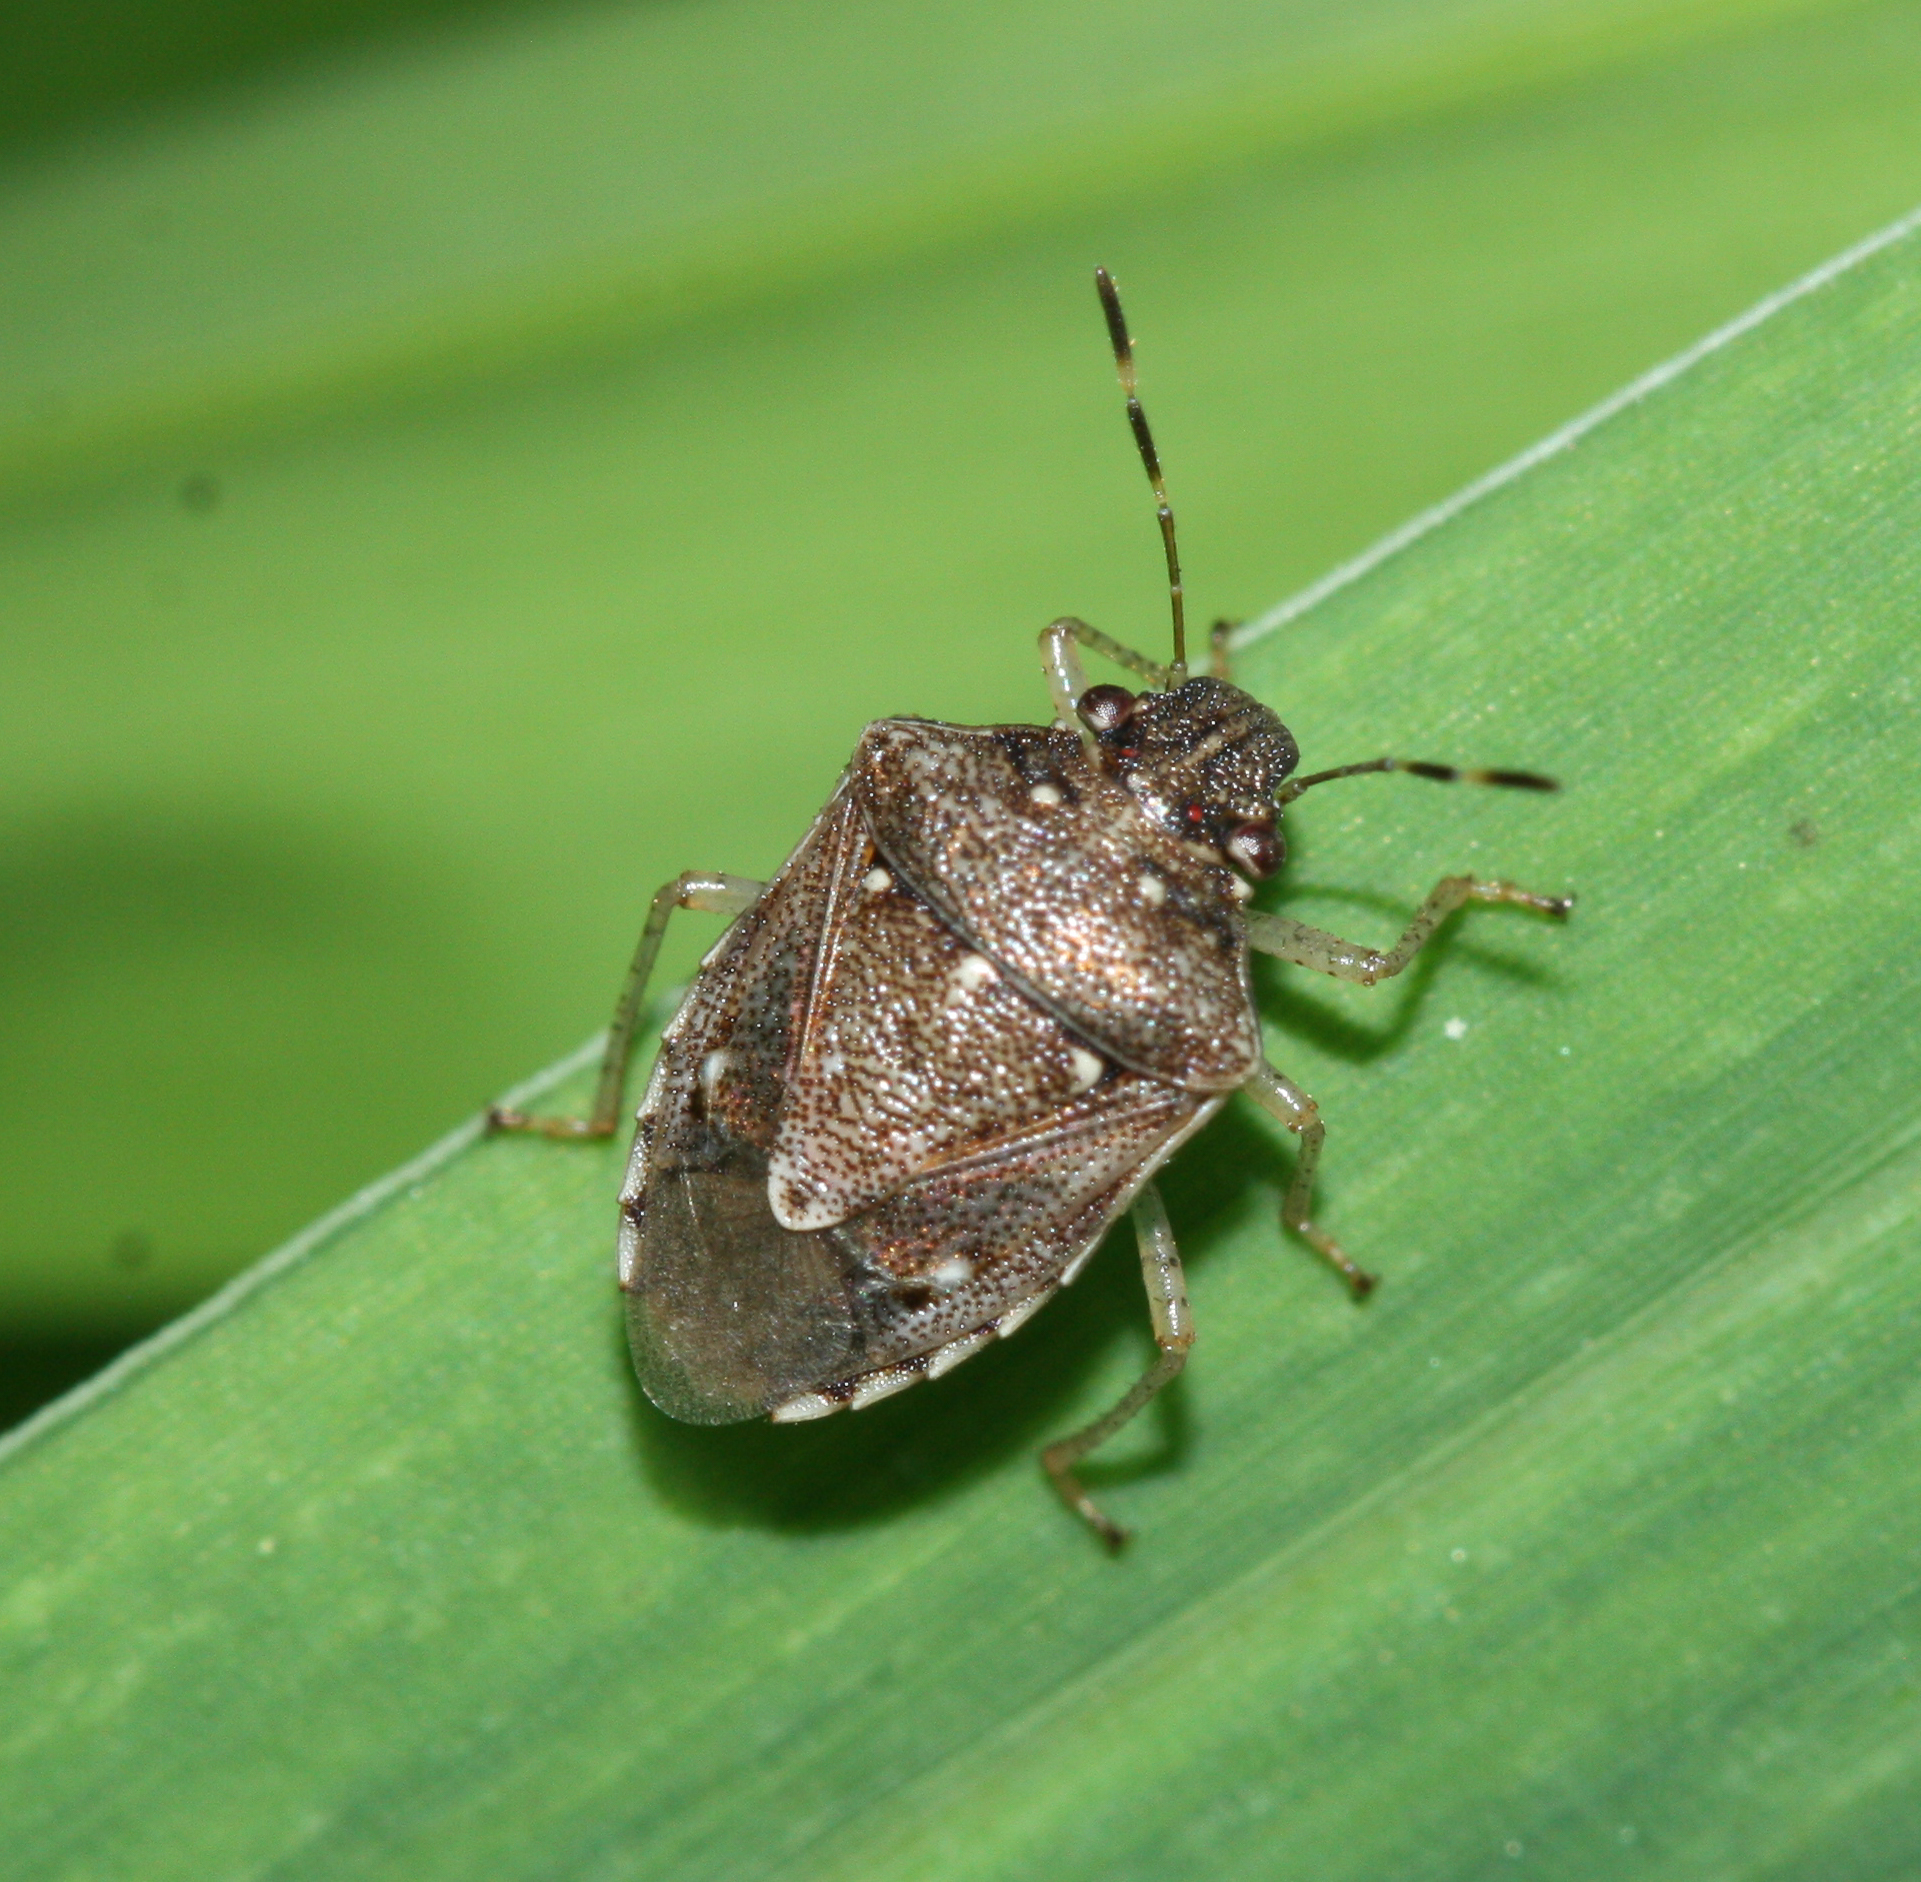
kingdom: Animalia
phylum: Arthropoda
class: Insecta
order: Hemiptera
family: Pentatomidae
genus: Mormidea
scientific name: Mormidea cubrosa
